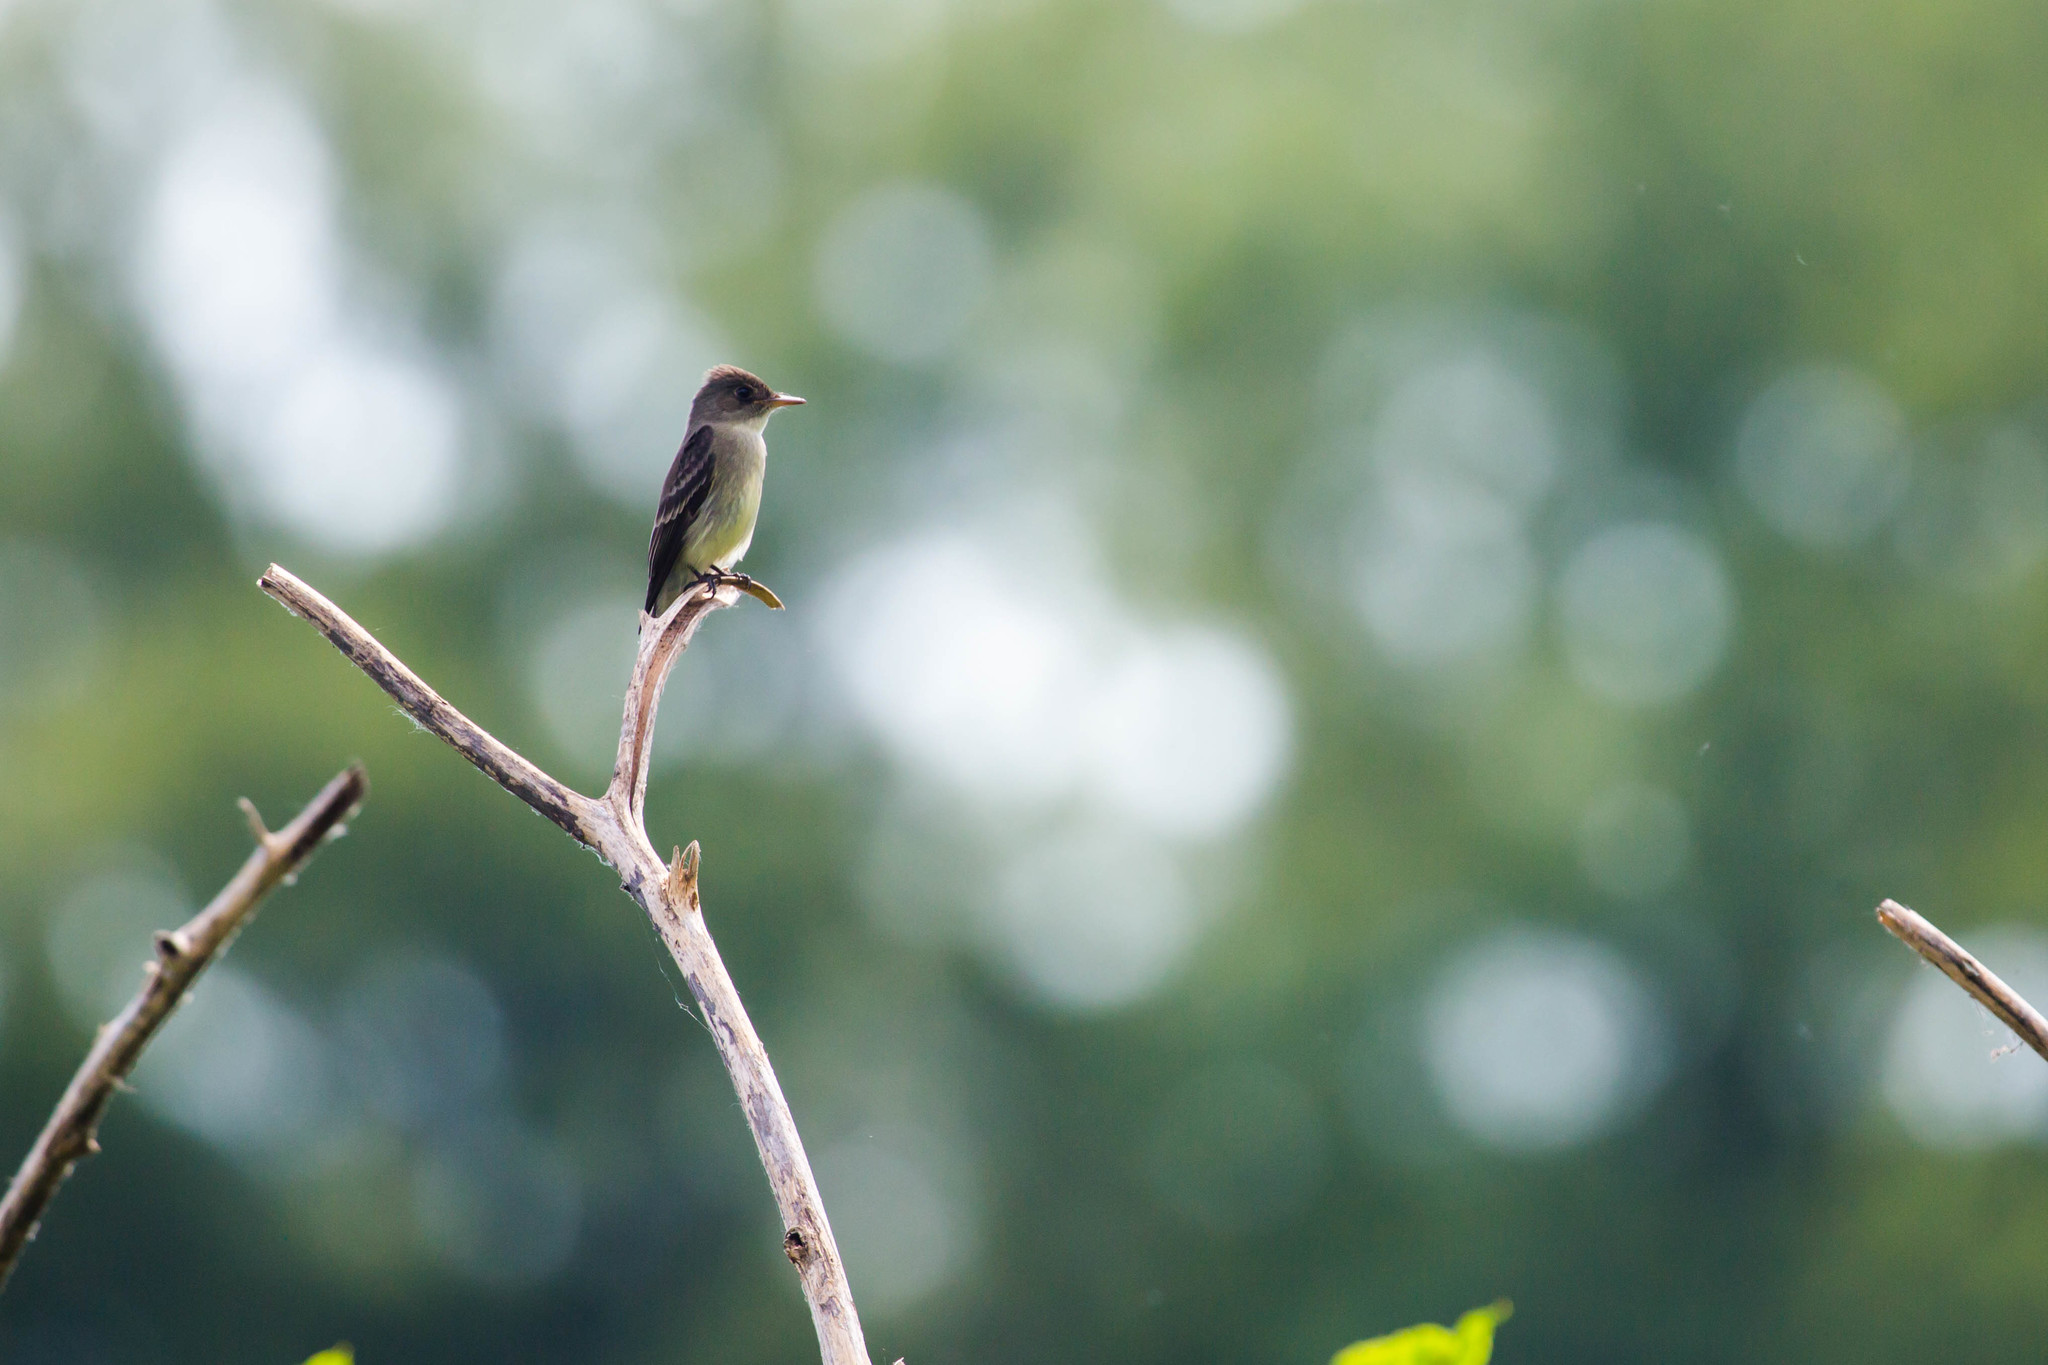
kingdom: Animalia
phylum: Chordata
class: Aves
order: Passeriformes
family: Tyrannidae
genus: Contopus
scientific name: Contopus virens
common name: Eastern wood-pewee
